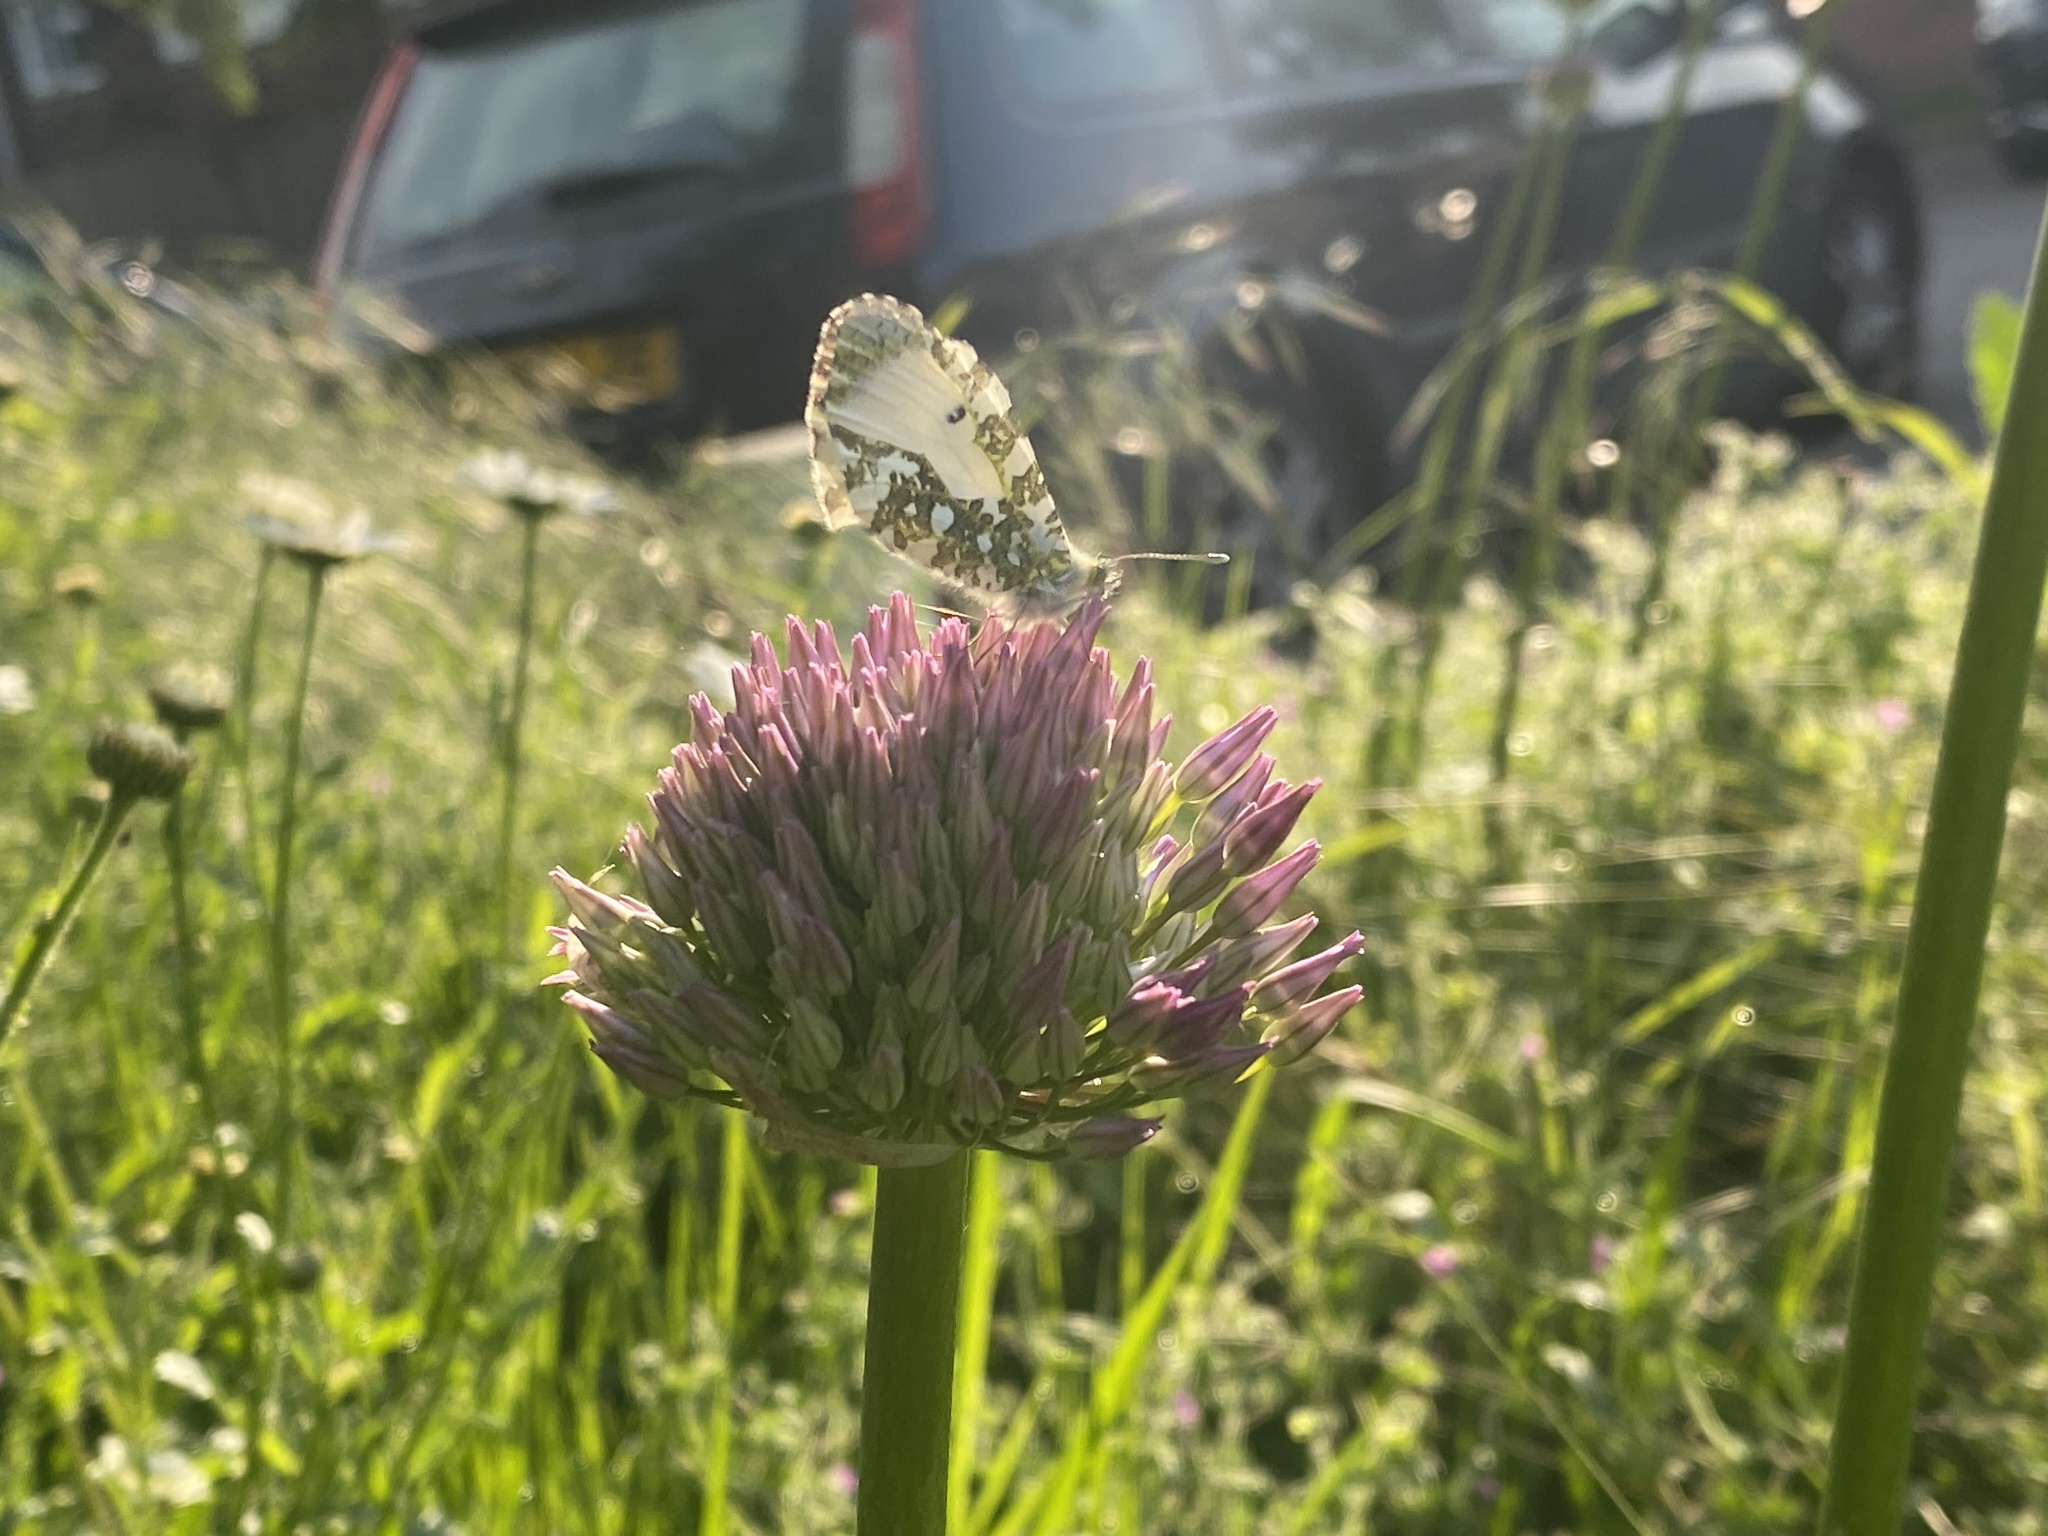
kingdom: Animalia
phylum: Arthropoda
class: Insecta
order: Lepidoptera
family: Pieridae
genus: Anthocharis
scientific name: Anthocharis cardamines
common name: Orange-tip
